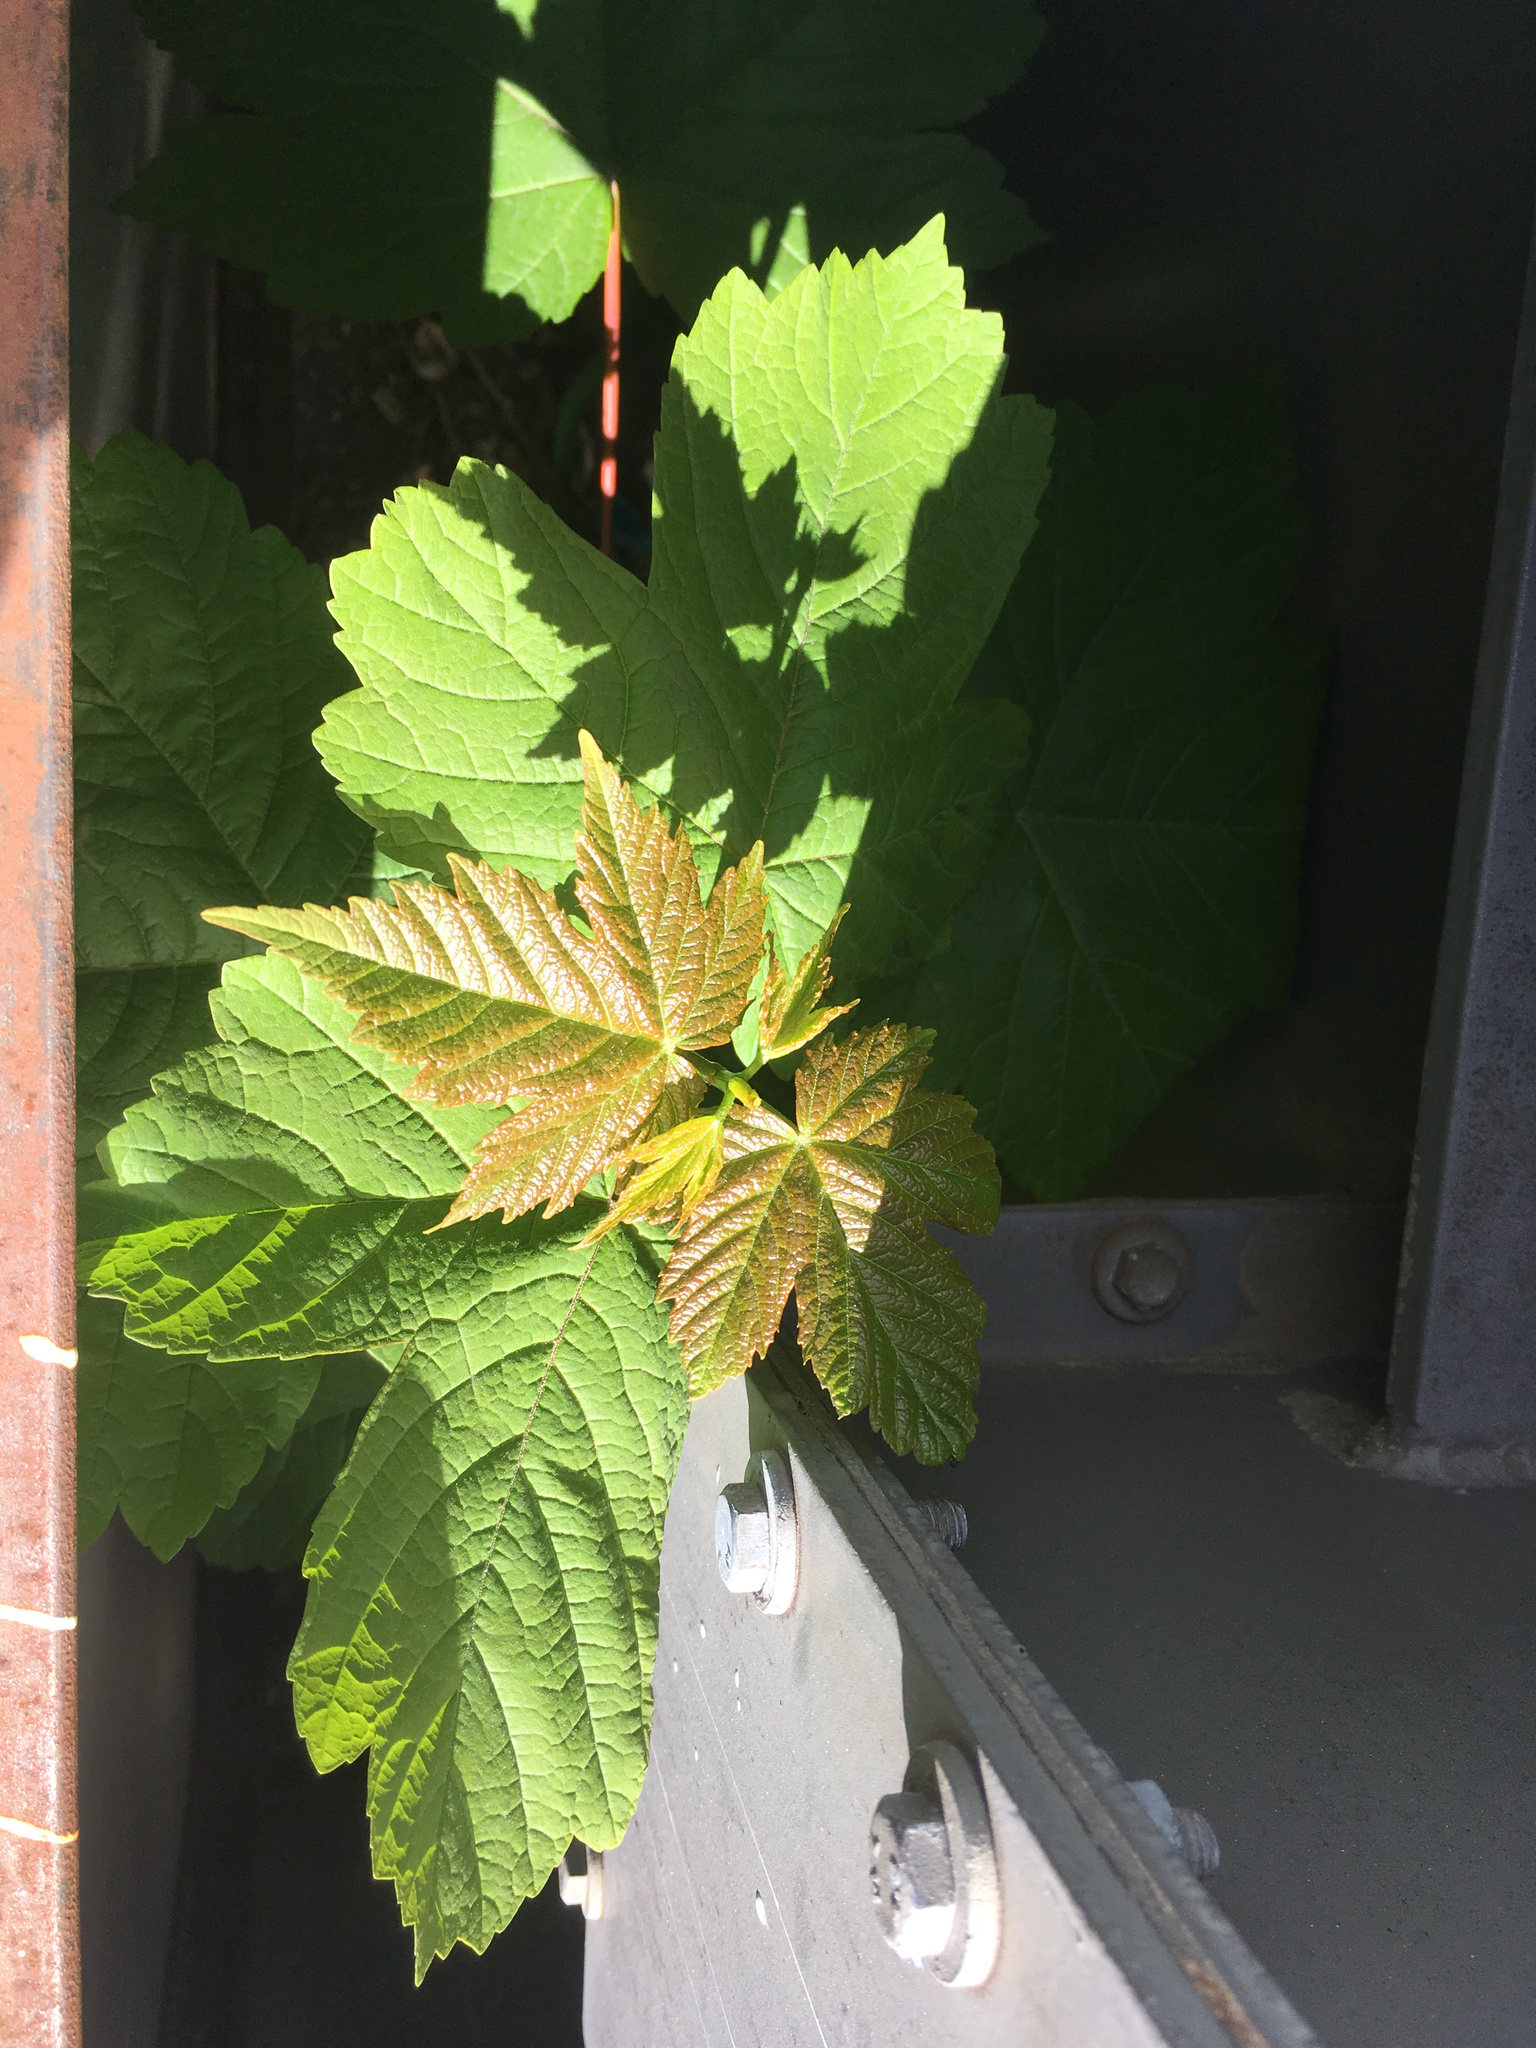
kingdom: Plantae
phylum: Tracheophyta
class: Magnoliopsida
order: Sapindales
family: Sapindaceae
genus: Acer
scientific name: Acer pseudoplatanus
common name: Sycamore
